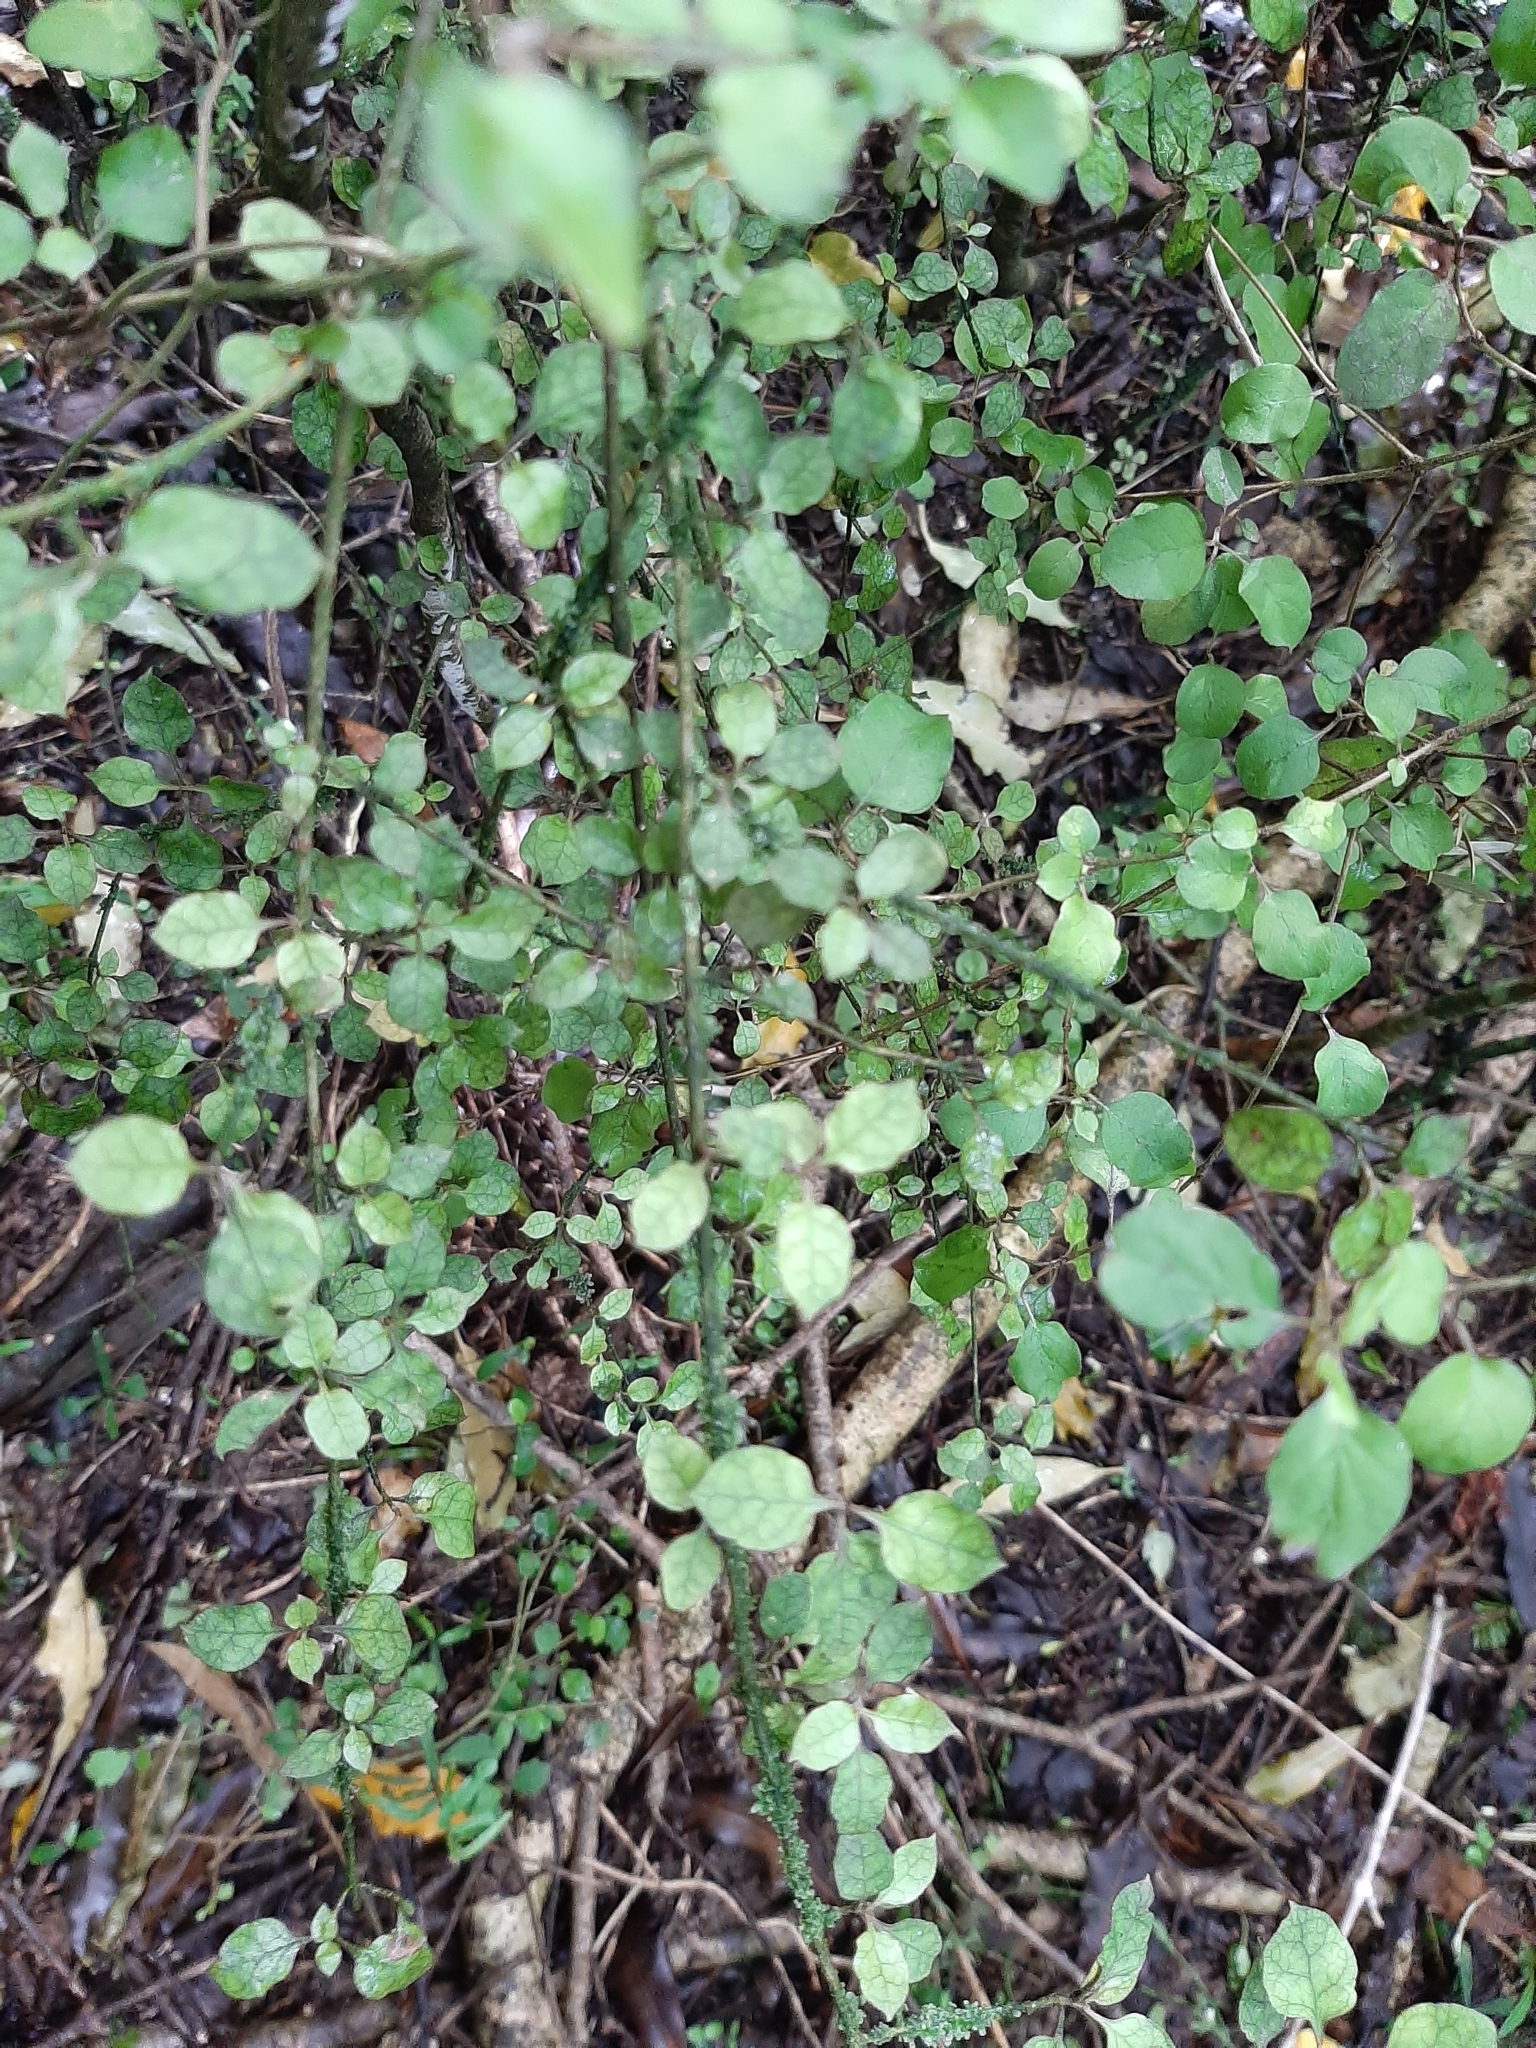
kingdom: Plantae
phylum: Tracheophyta
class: Magnoliopsida
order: Gentianales
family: Rubiaceae
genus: Coprosma
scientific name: Coprosma areolata
